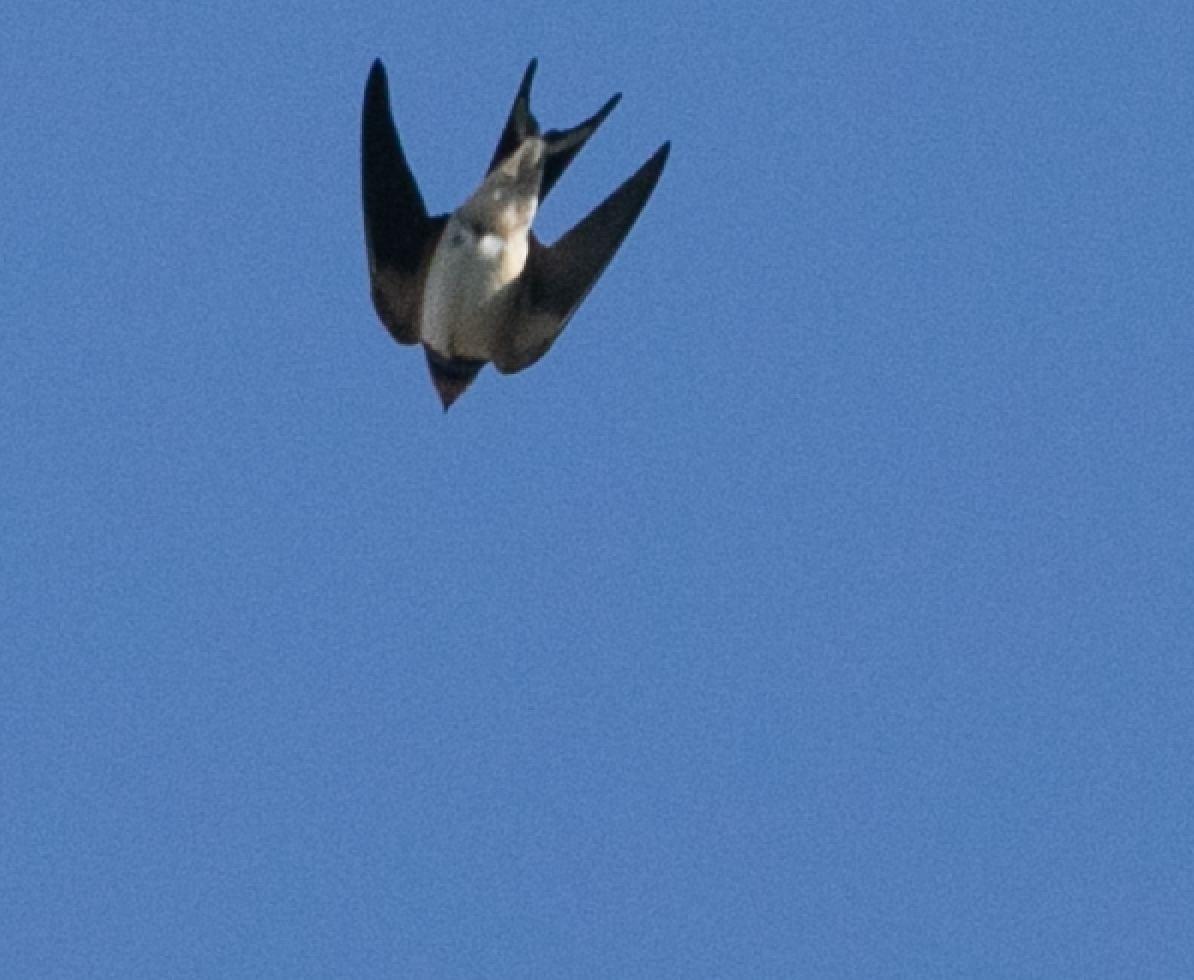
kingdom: Animalia
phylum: Chordata
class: Aves
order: Passeriformes
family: Hirundinidae
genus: Hirundo
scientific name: Hirundo rustica
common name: Barn swallow
